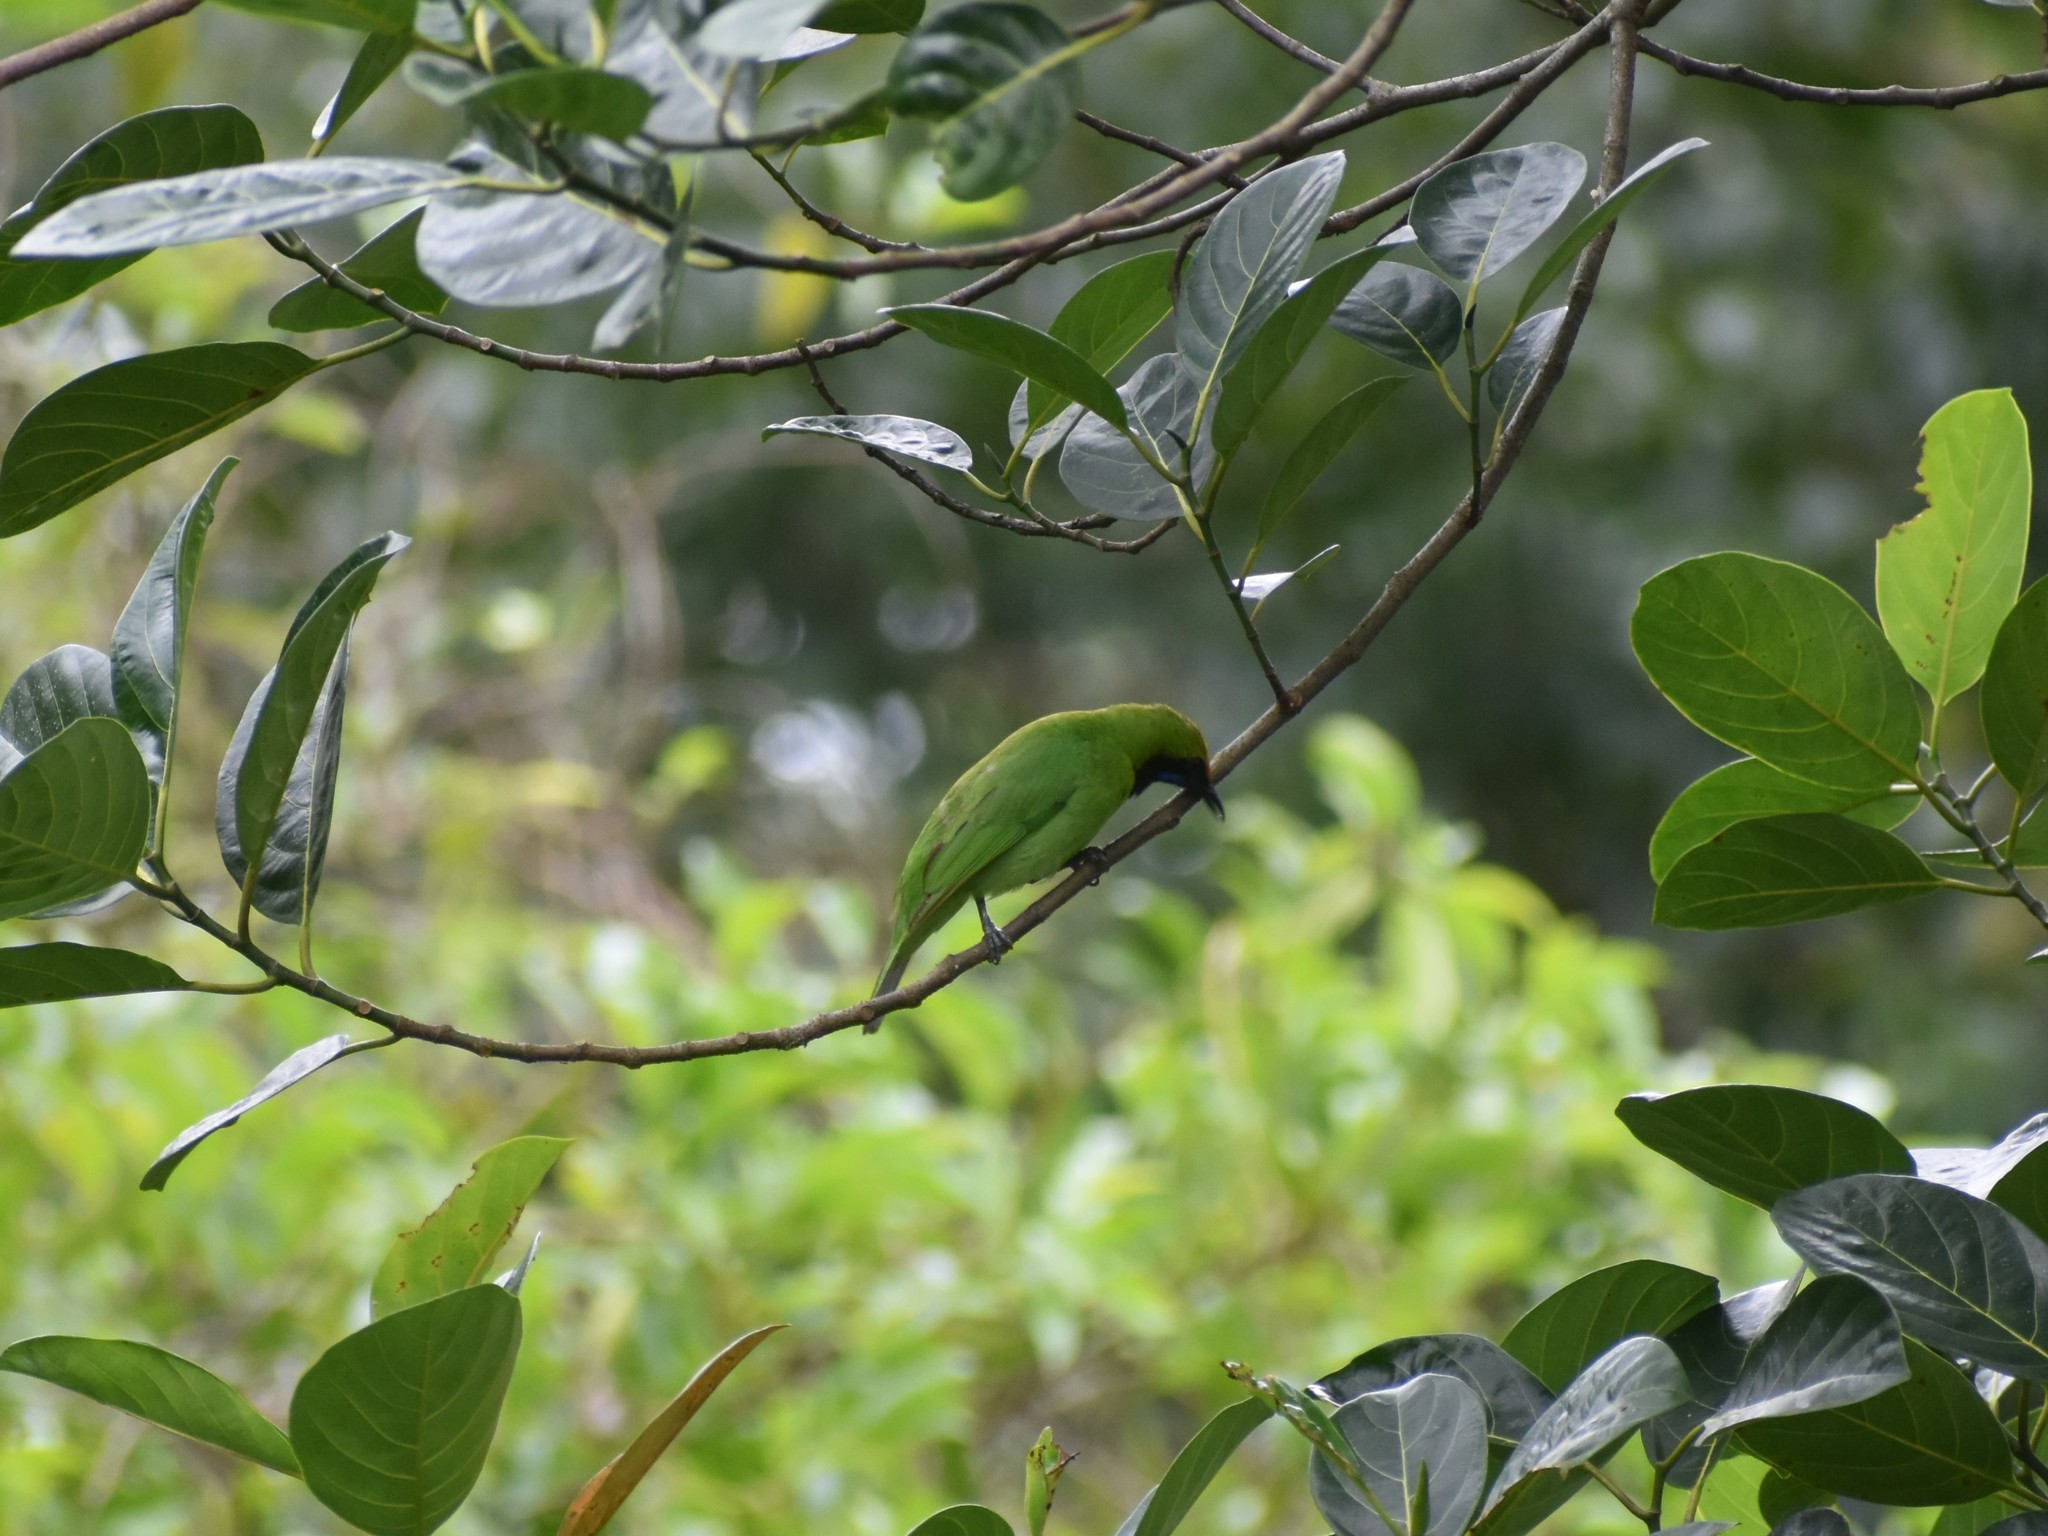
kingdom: Animalia
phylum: Chordata
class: Aves
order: Passeriformes
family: Chloropseidae
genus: Chloropsis
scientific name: Chloropsis aurifrons
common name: Golden-fronted leafbird
